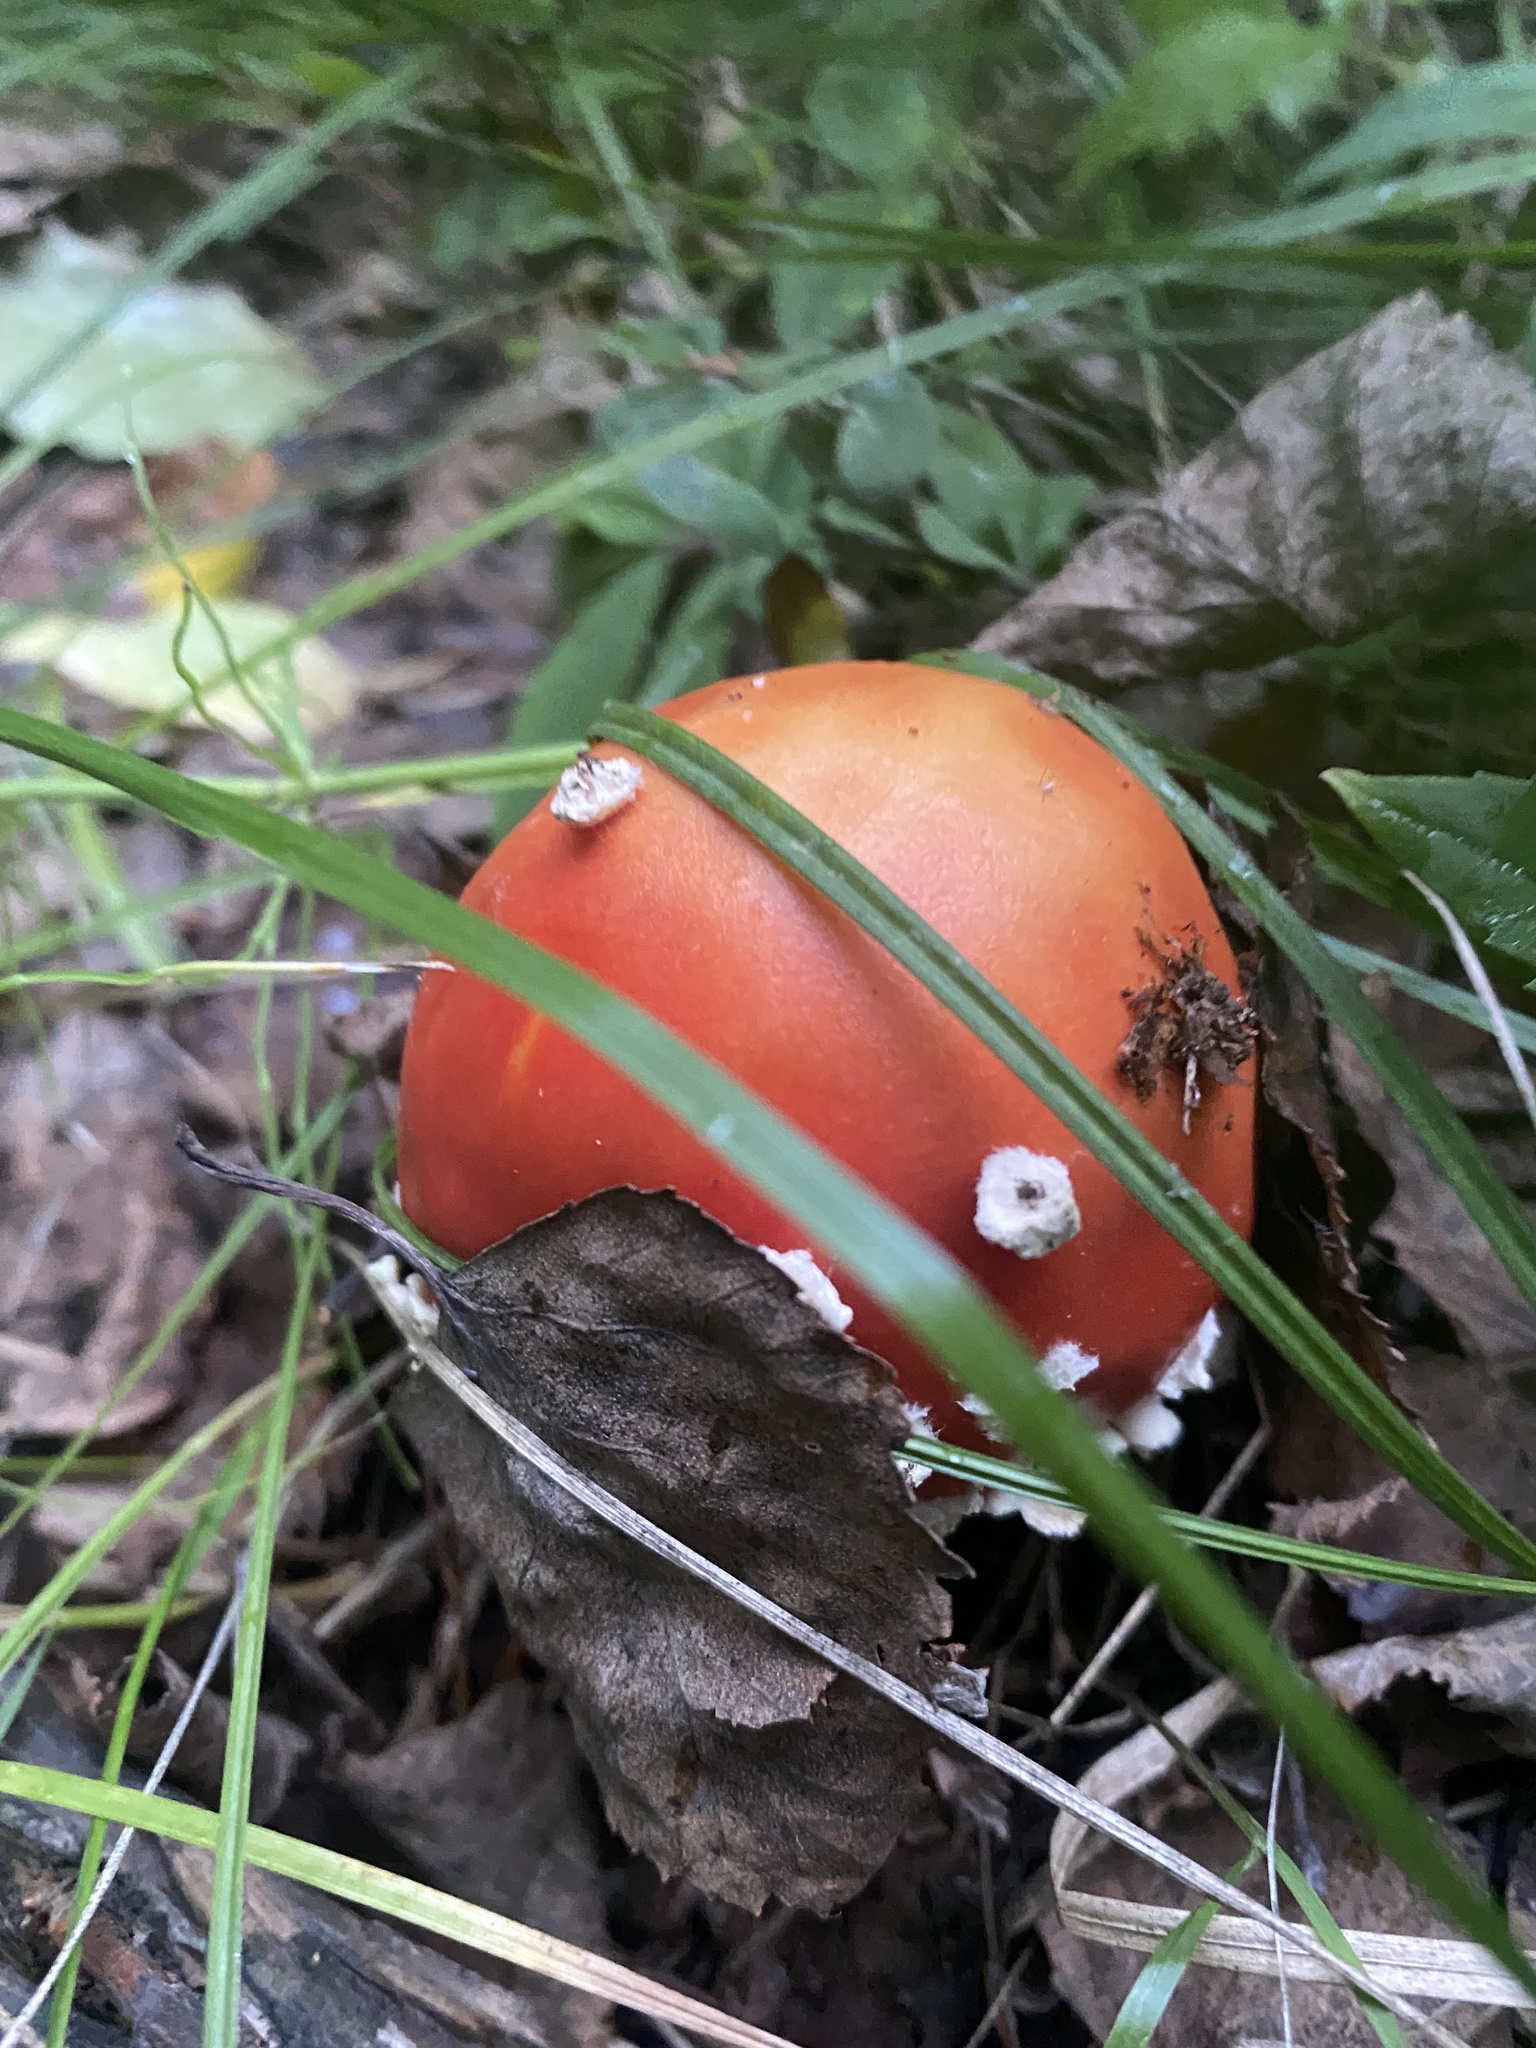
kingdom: Fungi
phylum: Basidiomycota
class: Agaricomycetes
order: Agaricales
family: Amanitaceae
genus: Amanita
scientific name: Amanita muscaria
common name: Fly agaric
